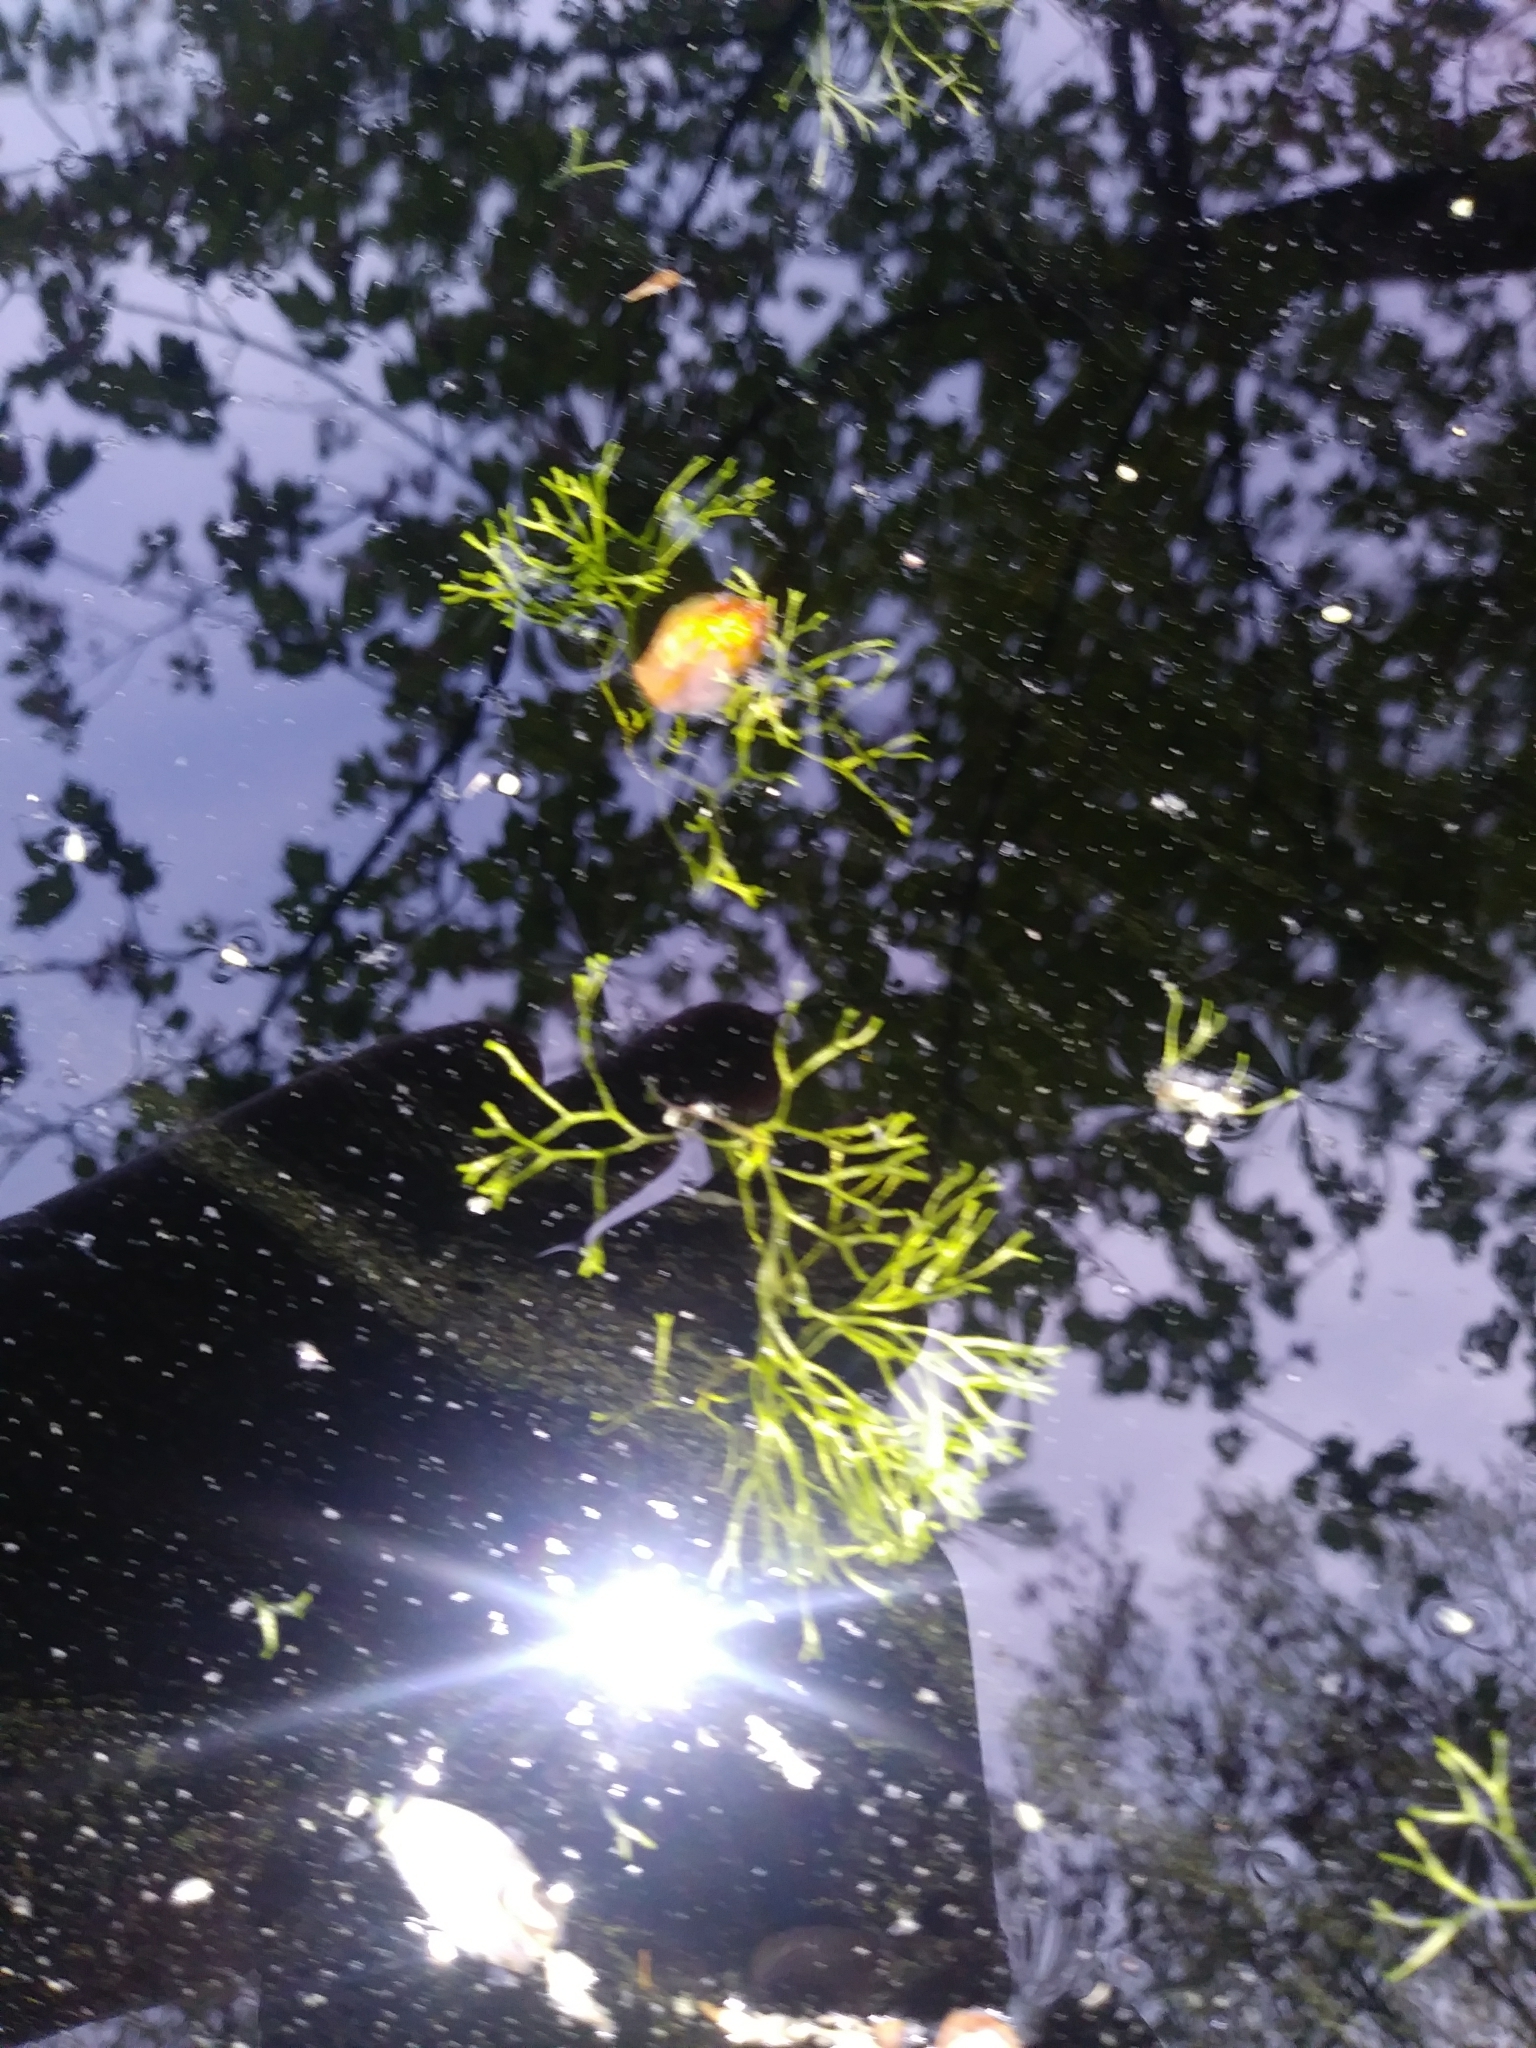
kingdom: Plantae
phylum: Marchantiophyta
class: Marchantiopsida
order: Marchantiales
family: Ricciaceae
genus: Riccia
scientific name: Riccia fluitans
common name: Floating crystalwort
